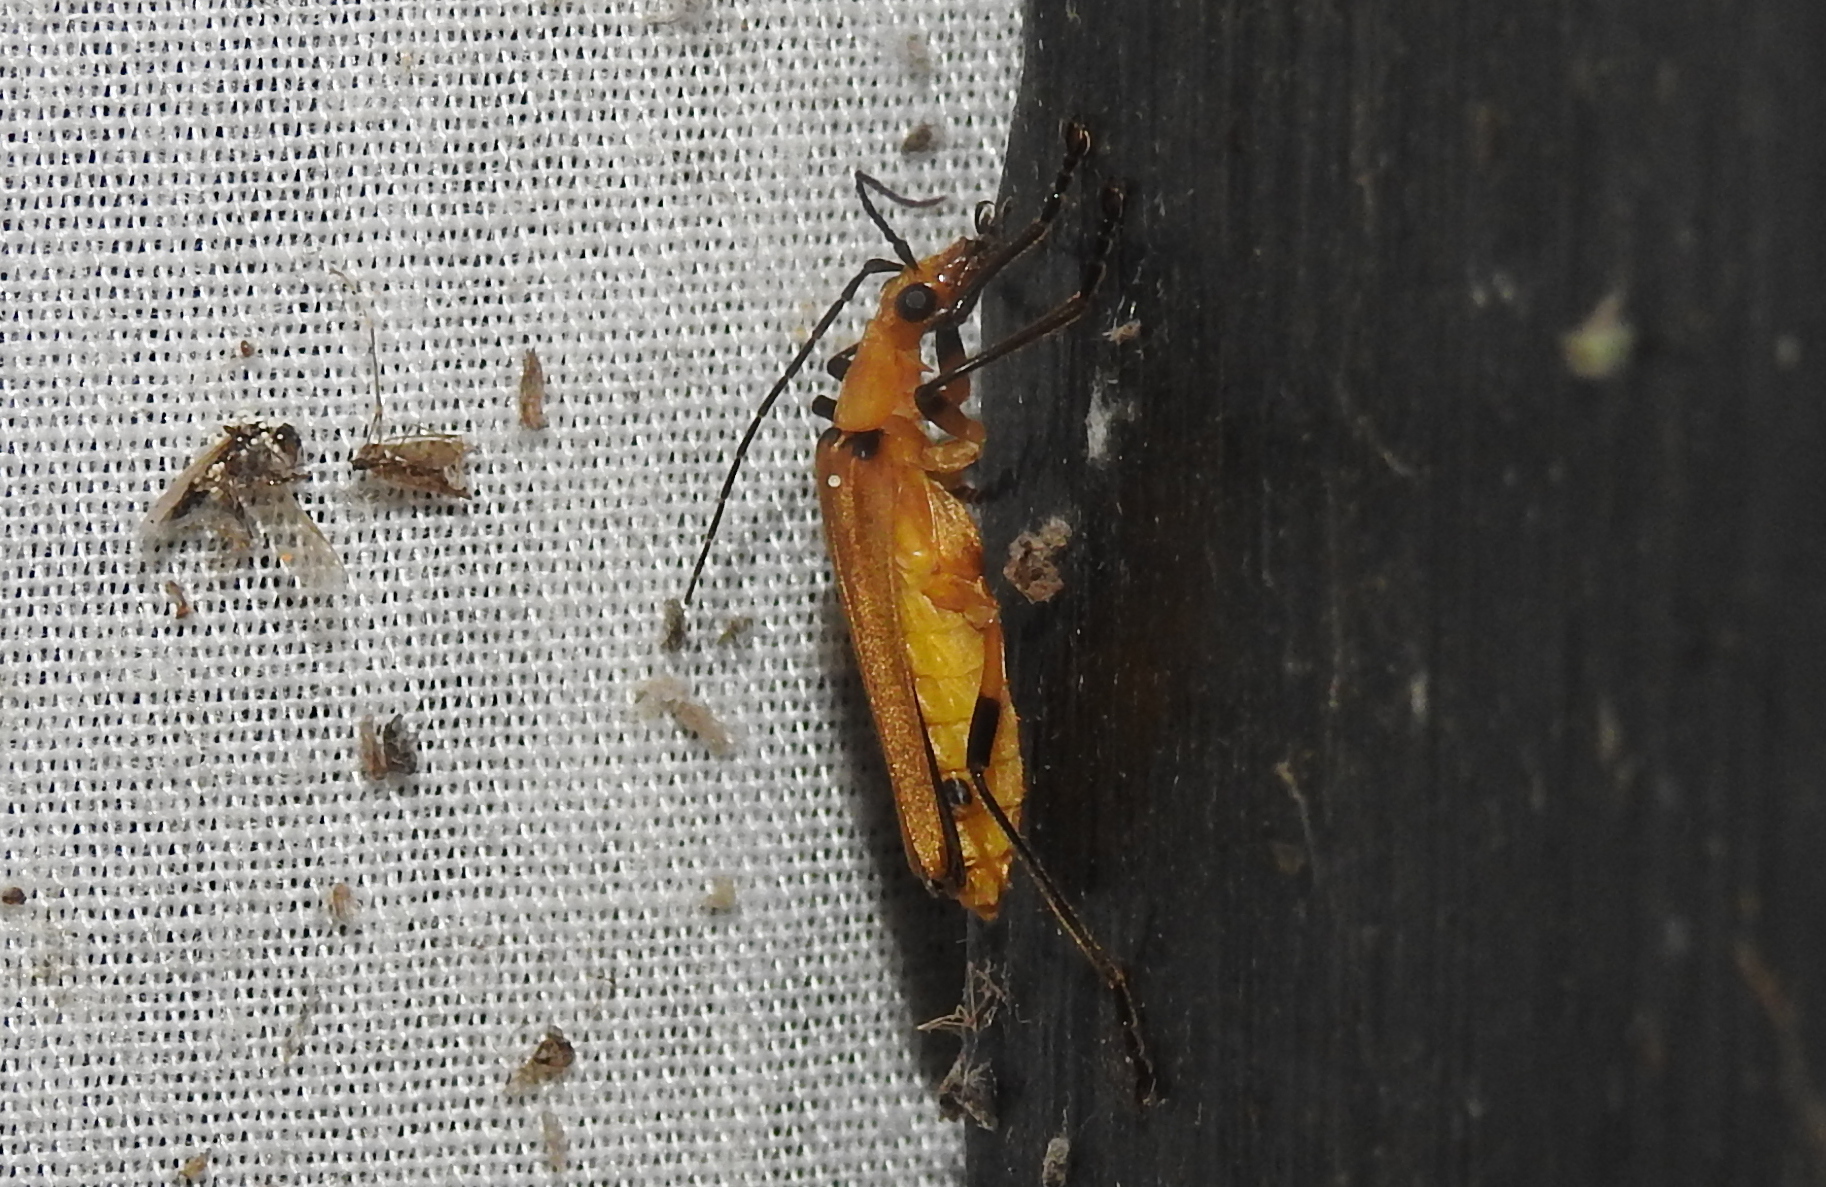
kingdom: Animalia
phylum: Arthropoda
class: Insecta
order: Coleoptera
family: Cantharidae
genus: Chauliognathus
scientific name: Chauliognathus
